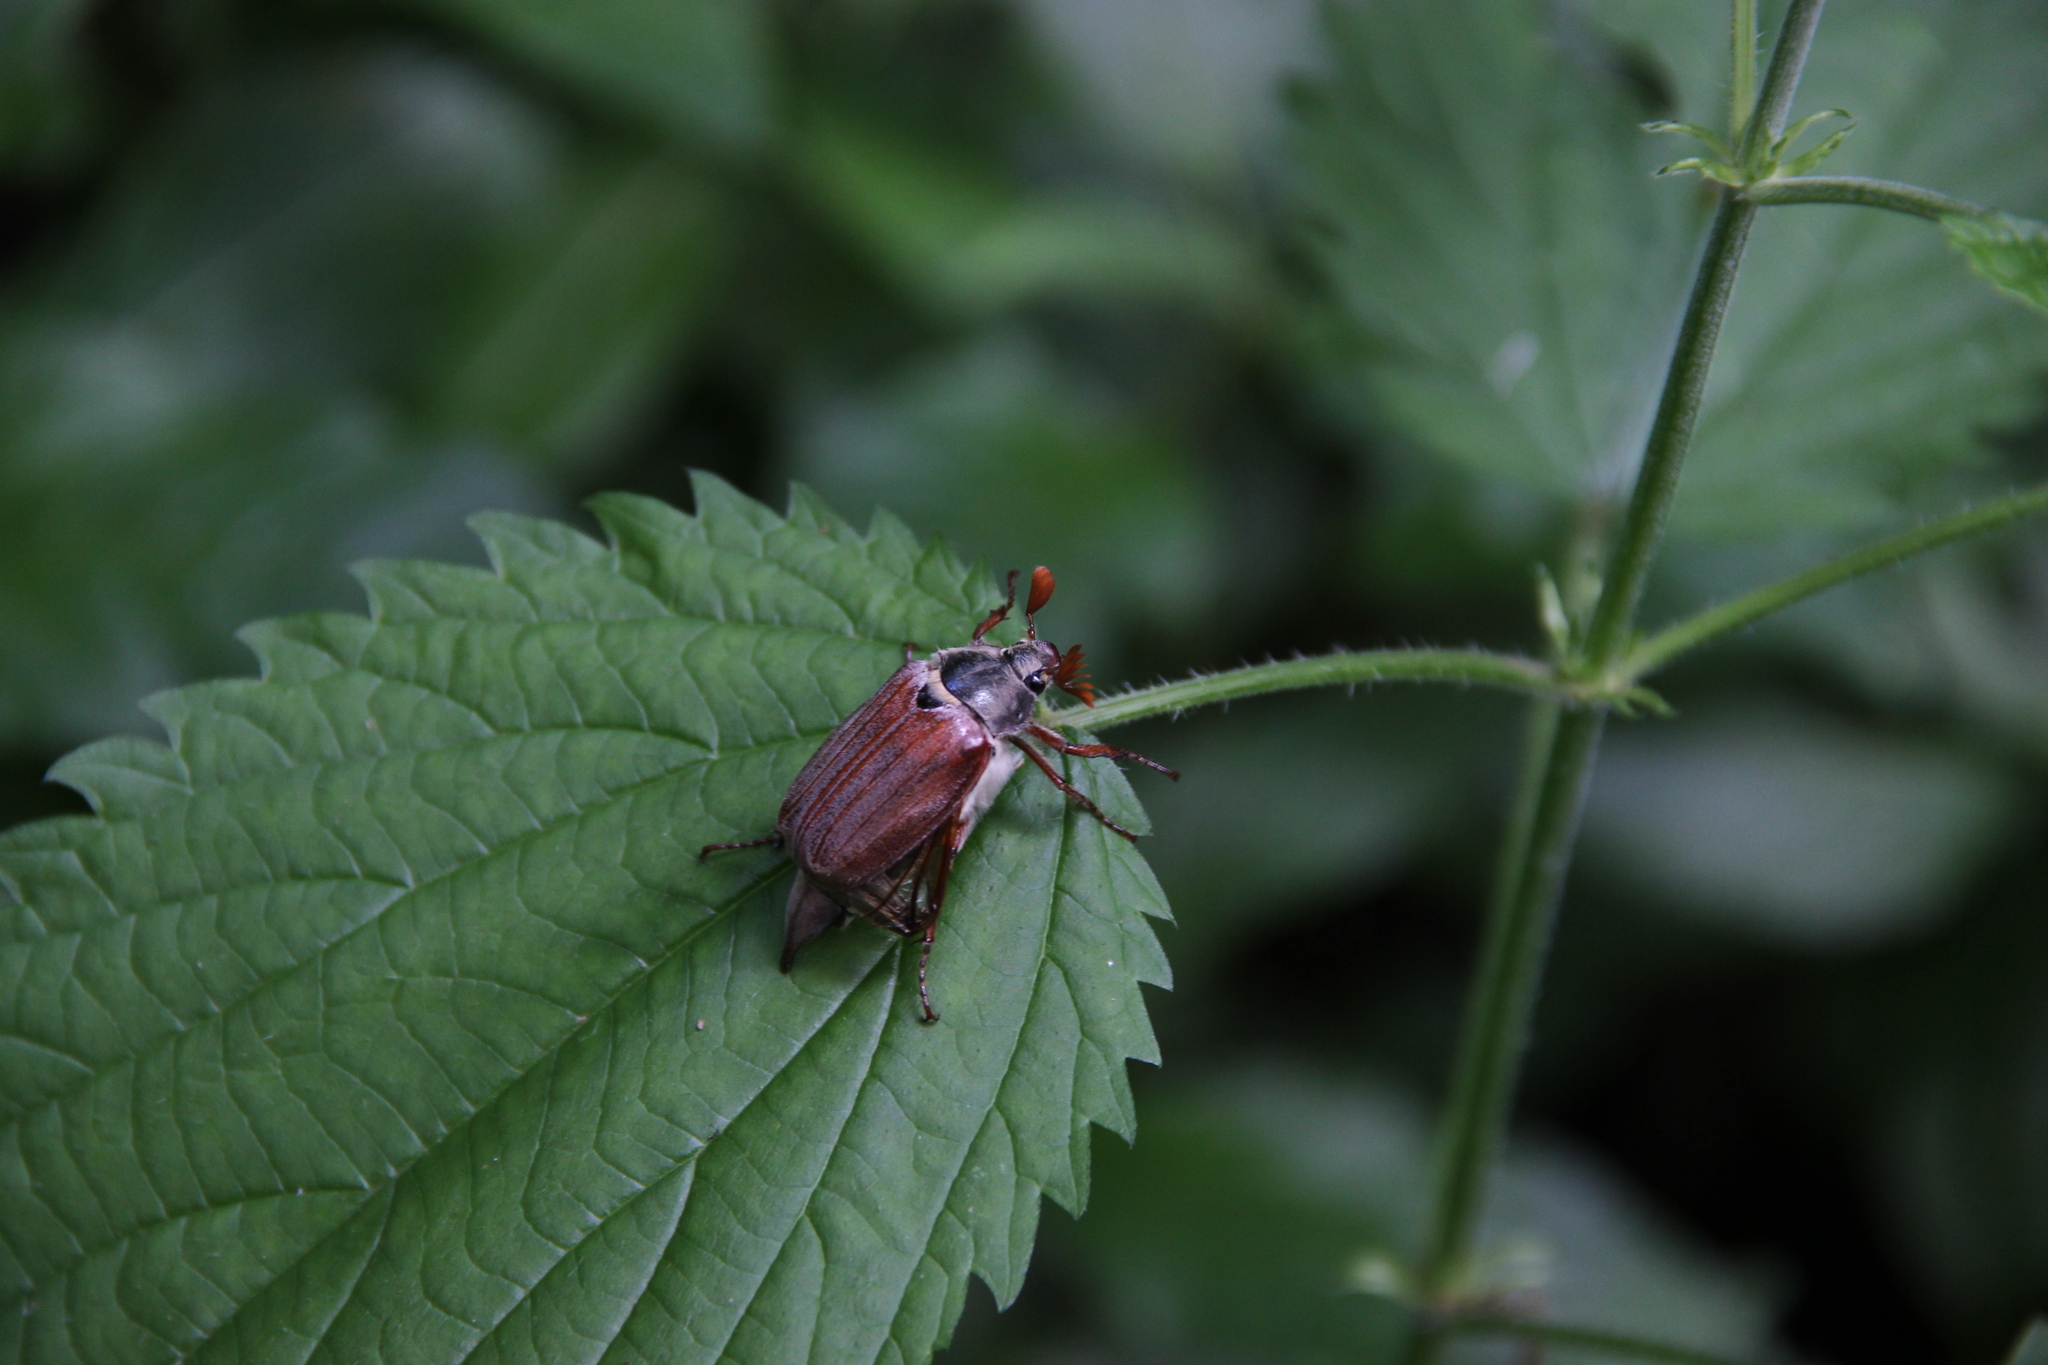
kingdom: Animalia
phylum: Arthropoda
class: Insecta
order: Coleoptera
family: Scarabaeidae
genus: Melolontha
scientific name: Melolontha melolontha
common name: Cockchafer maybeetle
